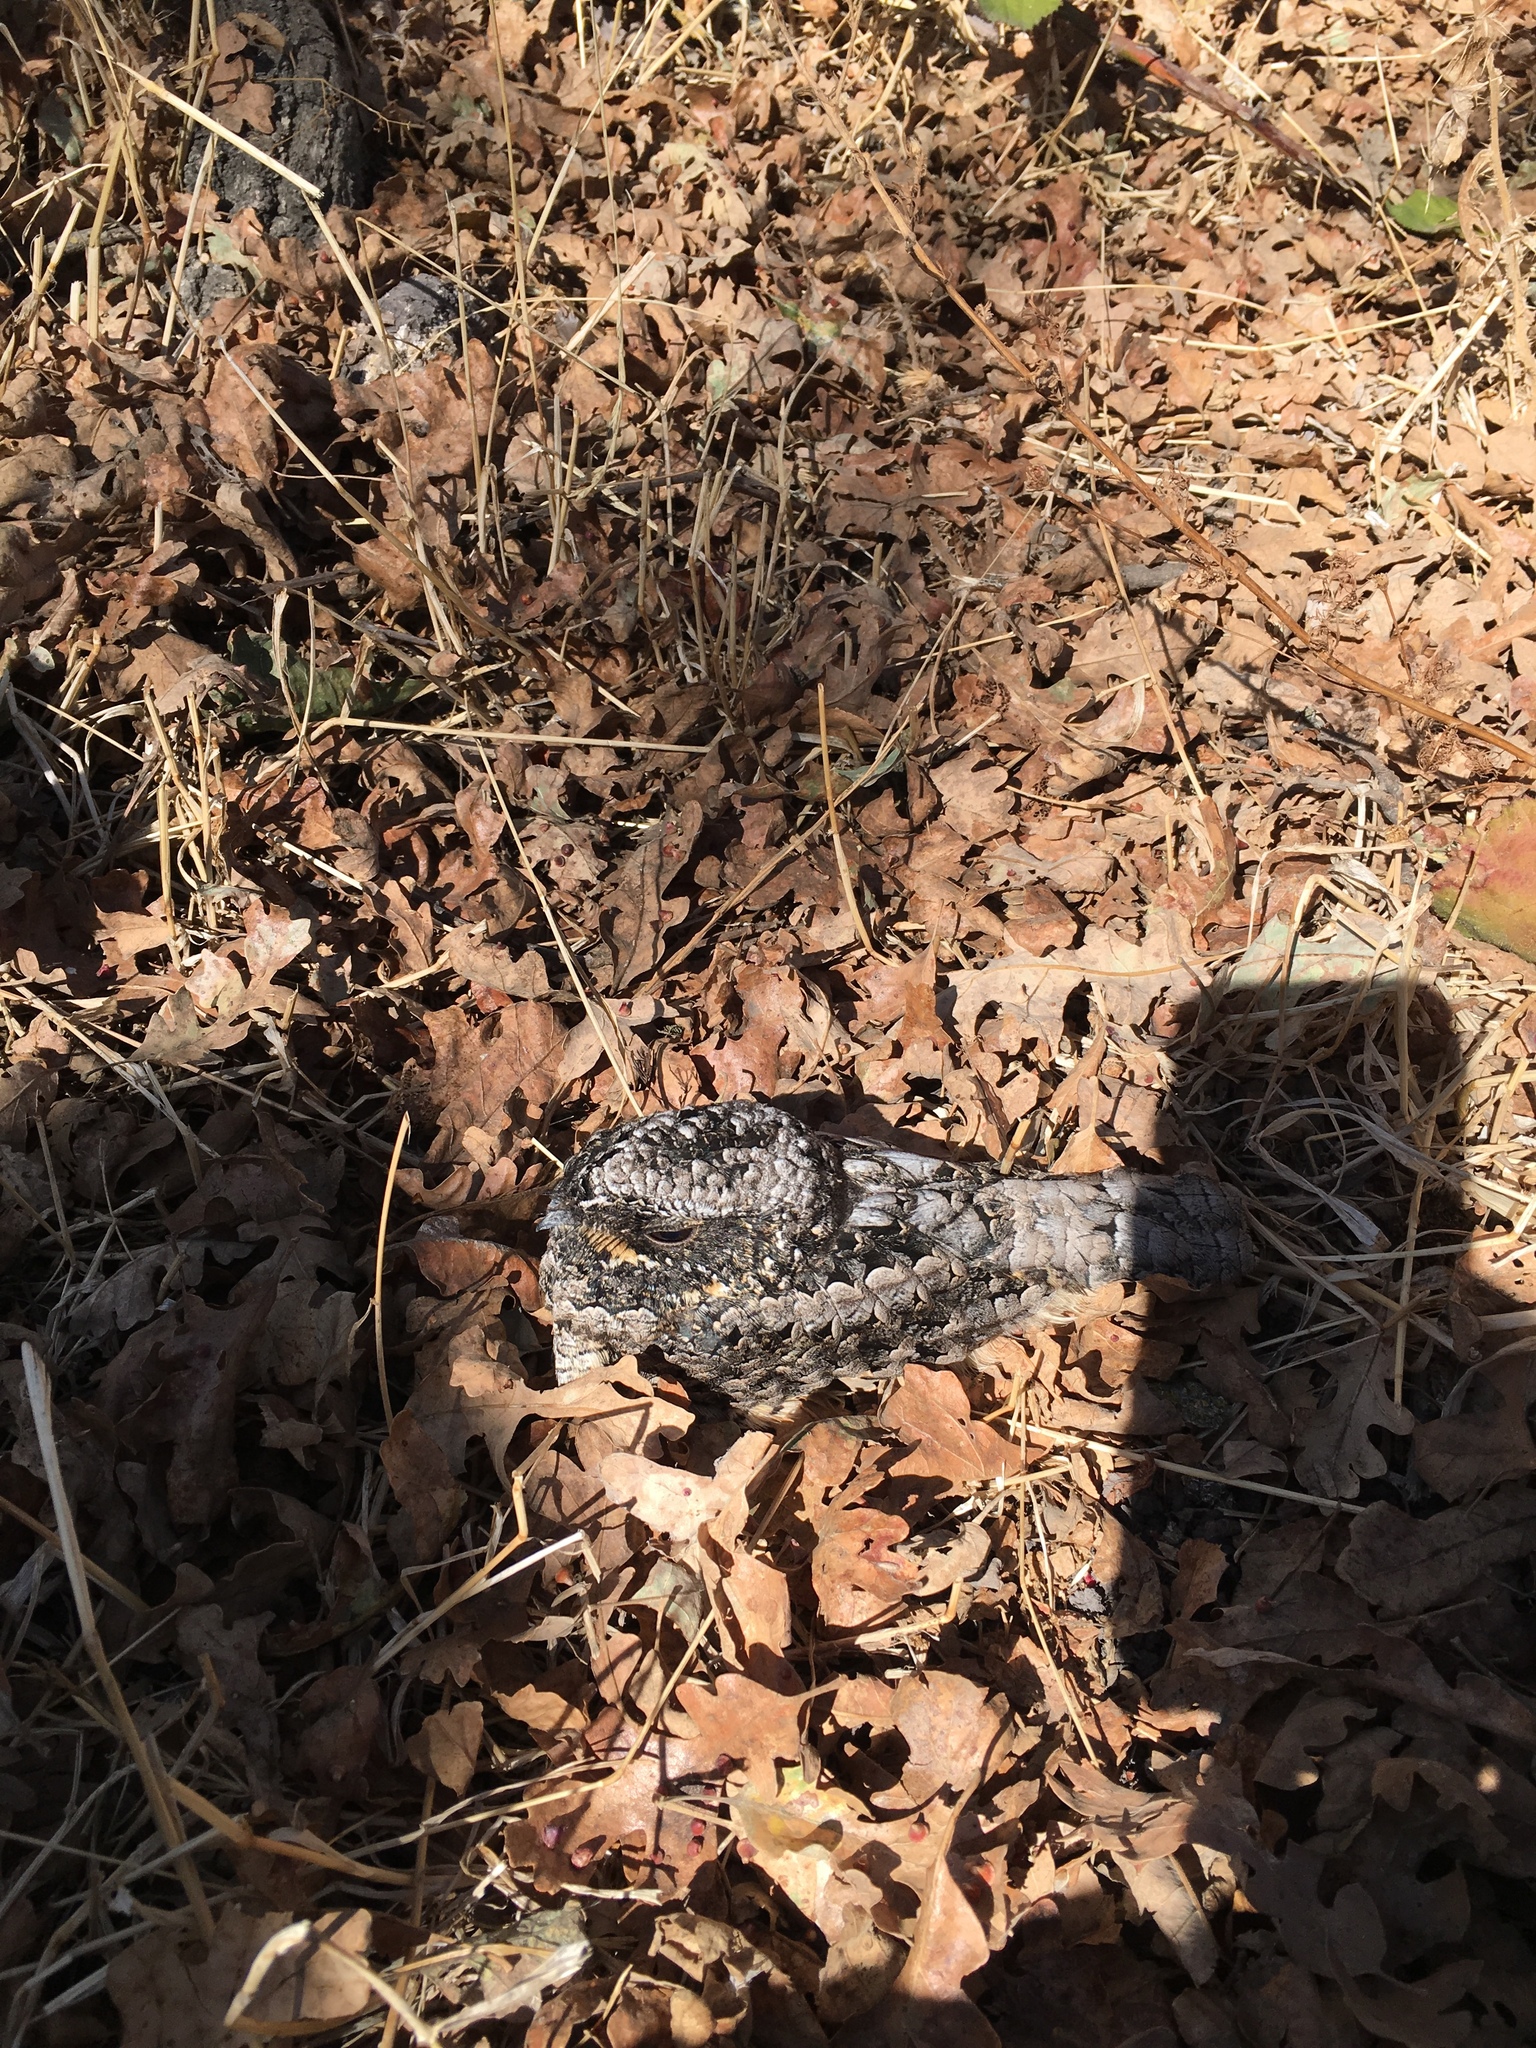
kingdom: Animalia
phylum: Chordata
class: Aves
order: Caprimulgiformes
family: Caprimulgidae
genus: Phalaenoptilus
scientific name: Phalaenoptilus nuttallii
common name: Common poorwill
